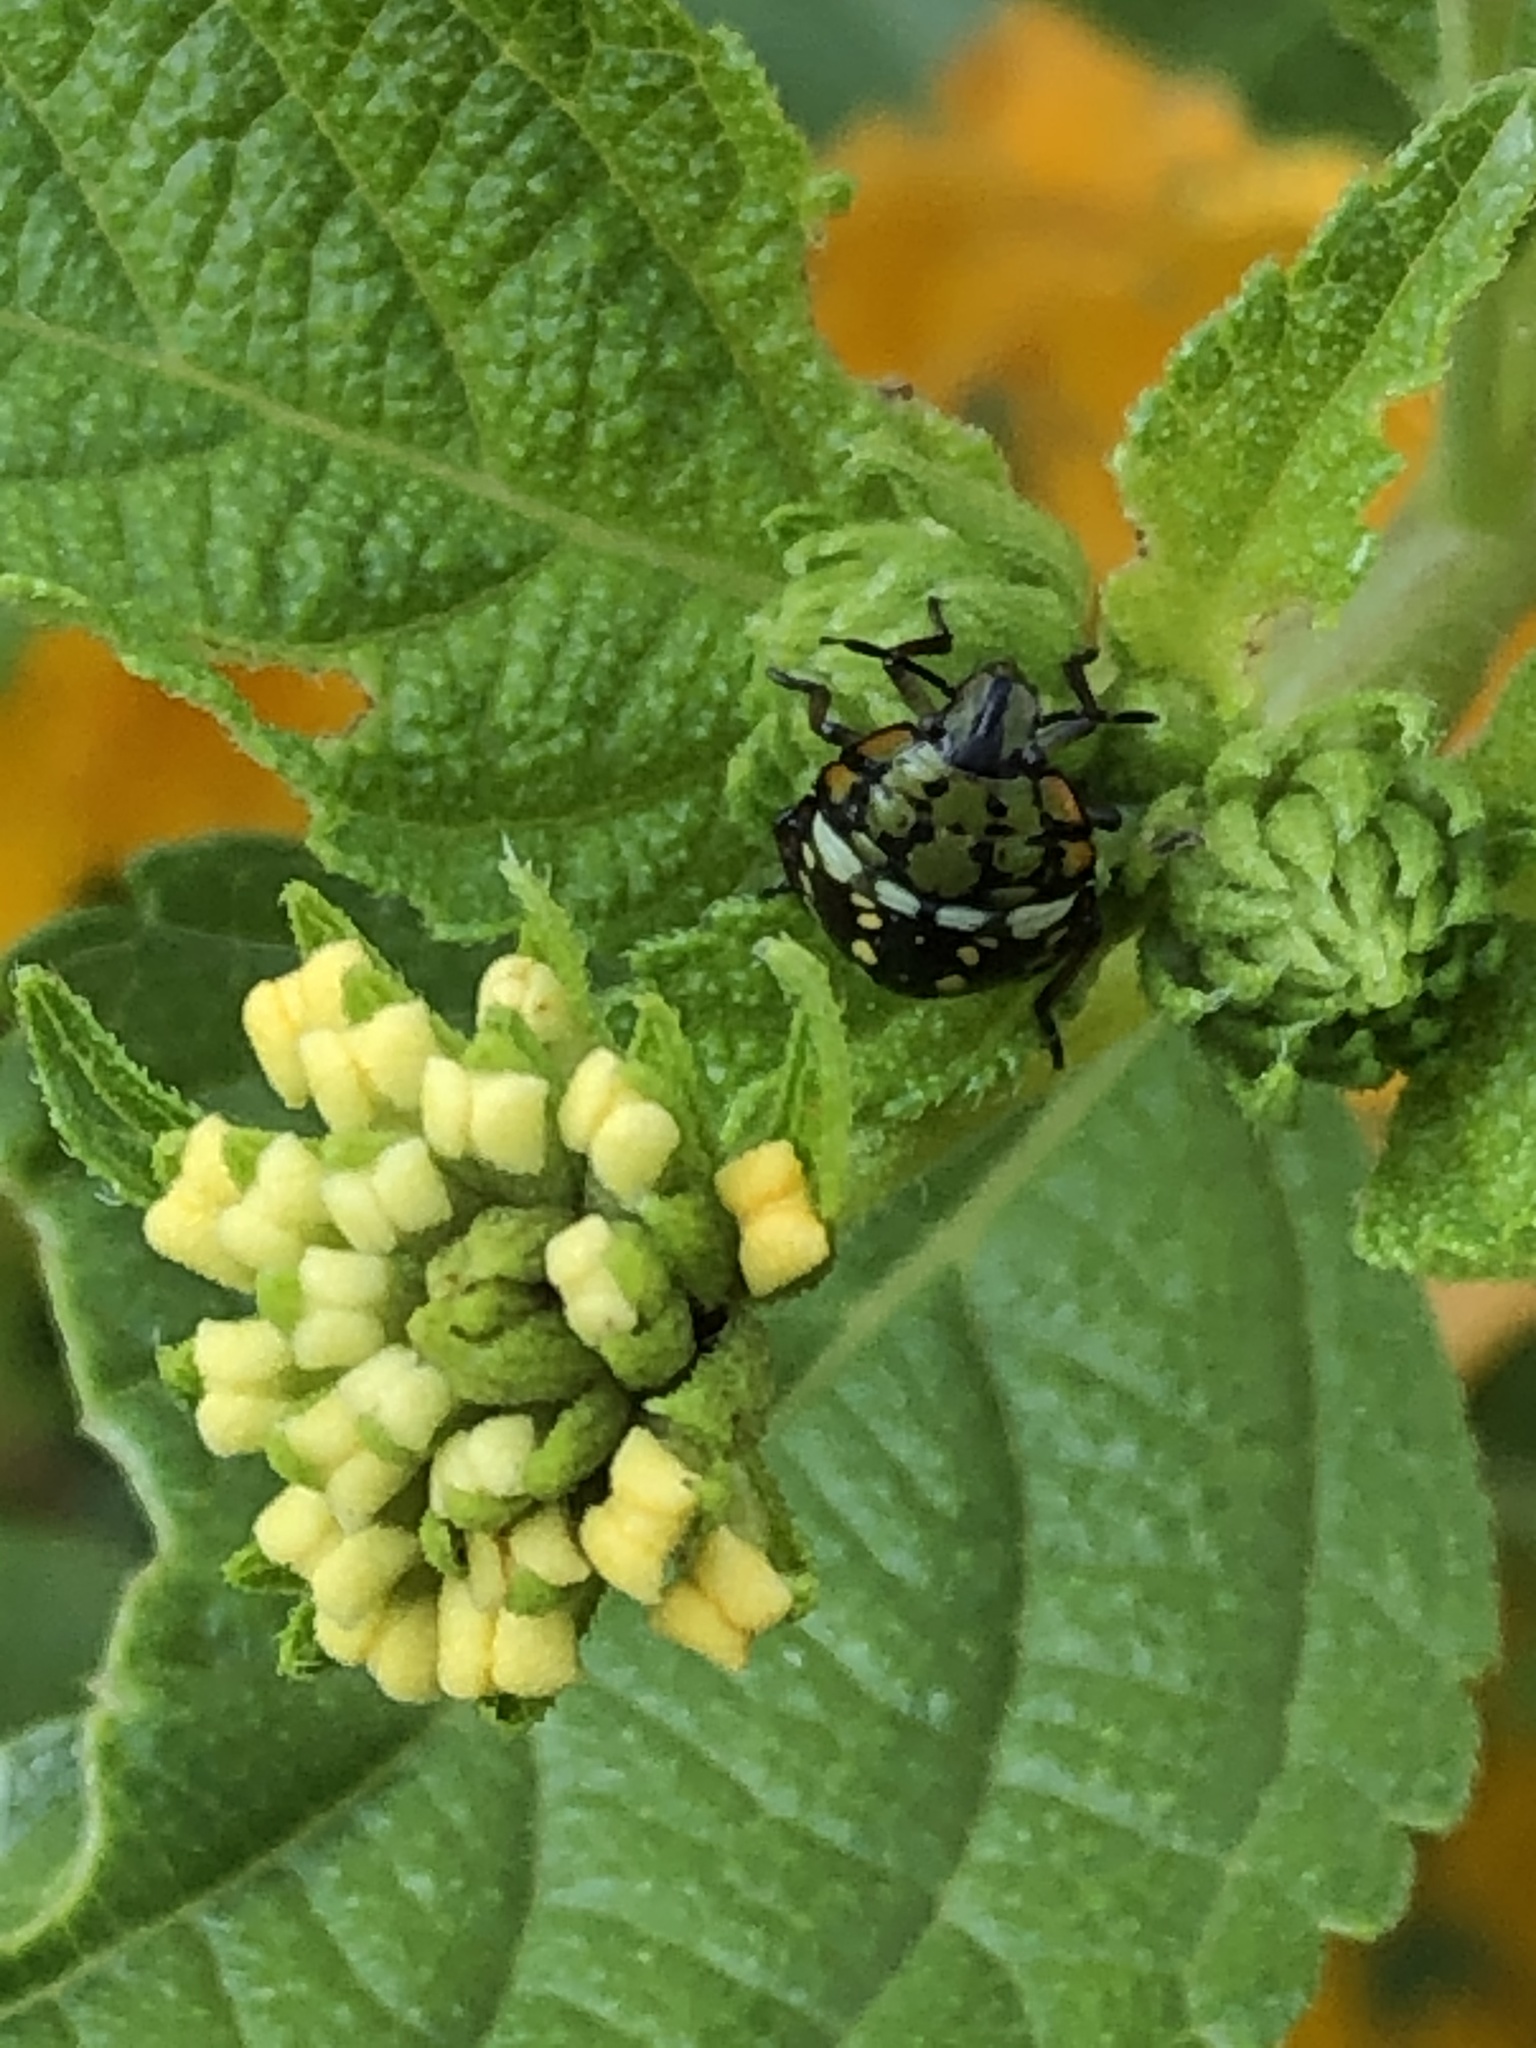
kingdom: Animalia
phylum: Arthropoda
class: Insecta
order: Hemiptera
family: Pentatomidae
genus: Nezara
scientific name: Nezara viridula
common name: Southern green stink bug
